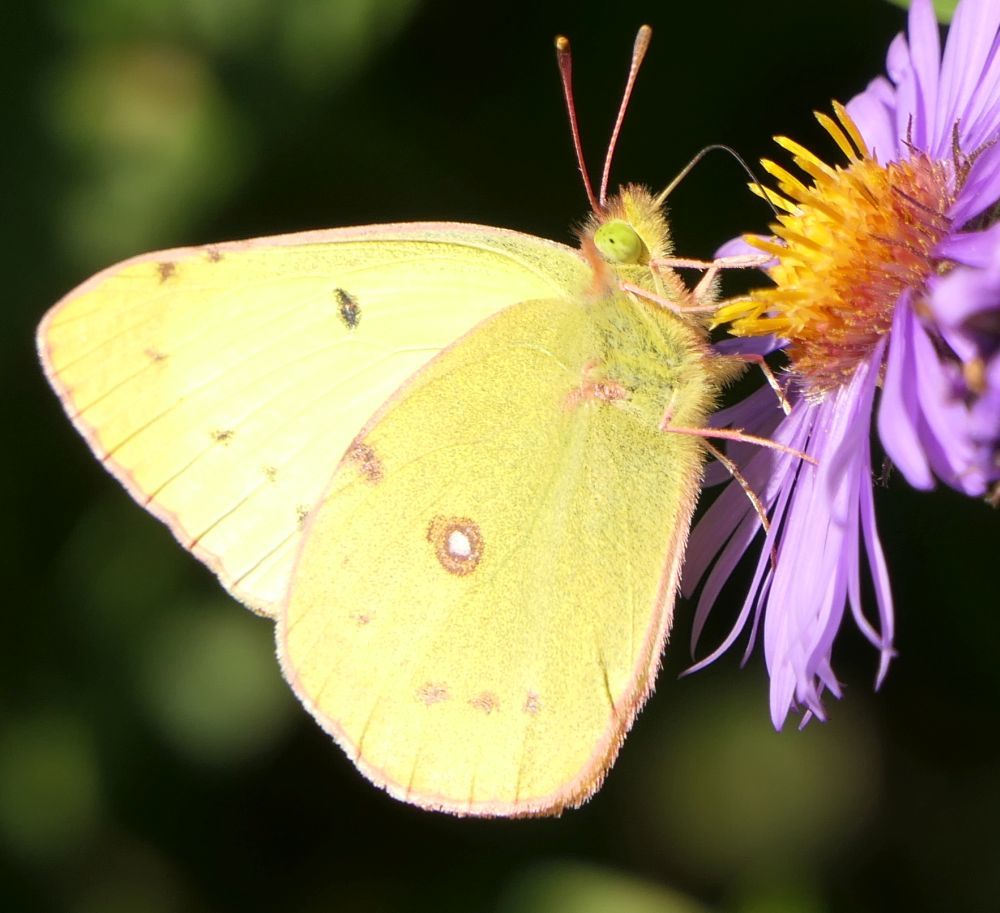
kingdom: Animalia
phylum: Arthropoda
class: Insecta
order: Lepidoptera
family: Pieridae
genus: Colias
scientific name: Colias philodice
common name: Clouded sulphur
